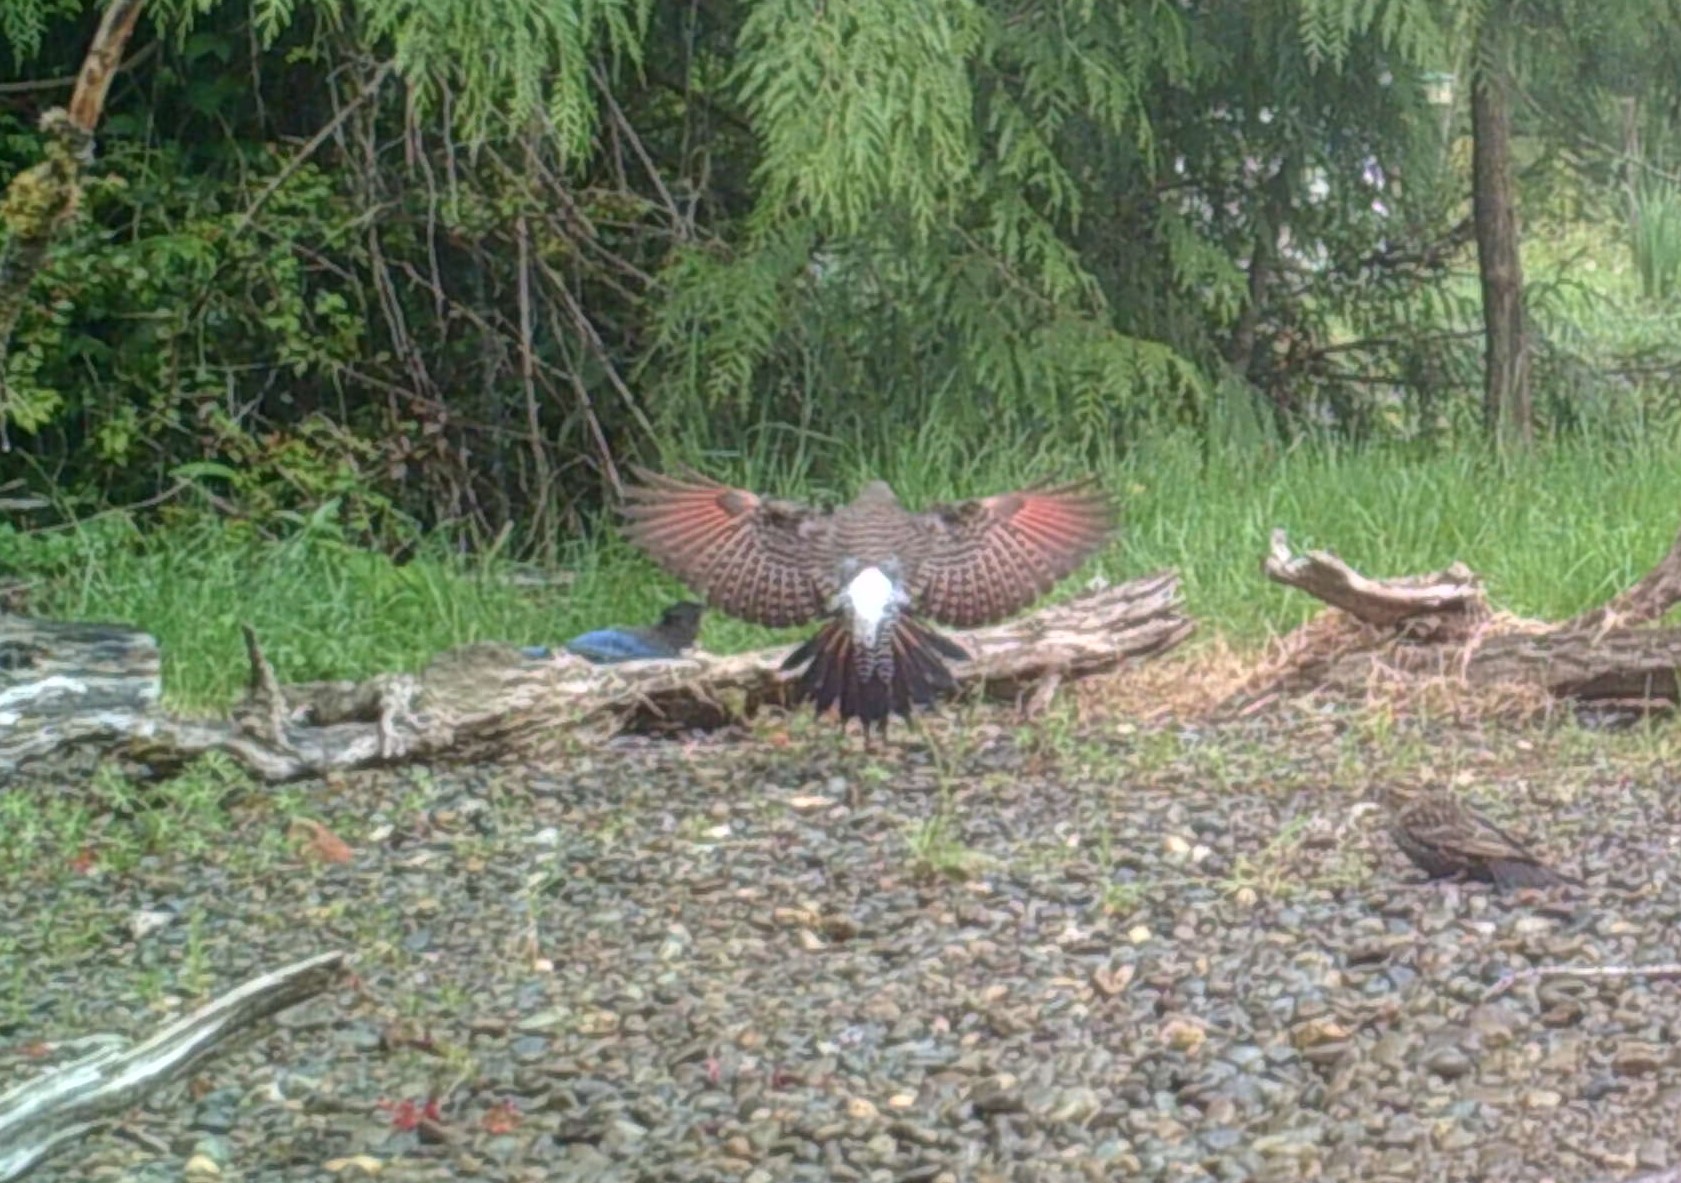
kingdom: Animalia
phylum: Chordata
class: Aves
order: Piciformes
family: Picidae
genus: Colaptes
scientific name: Colaptes auratus
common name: Northern flicker
